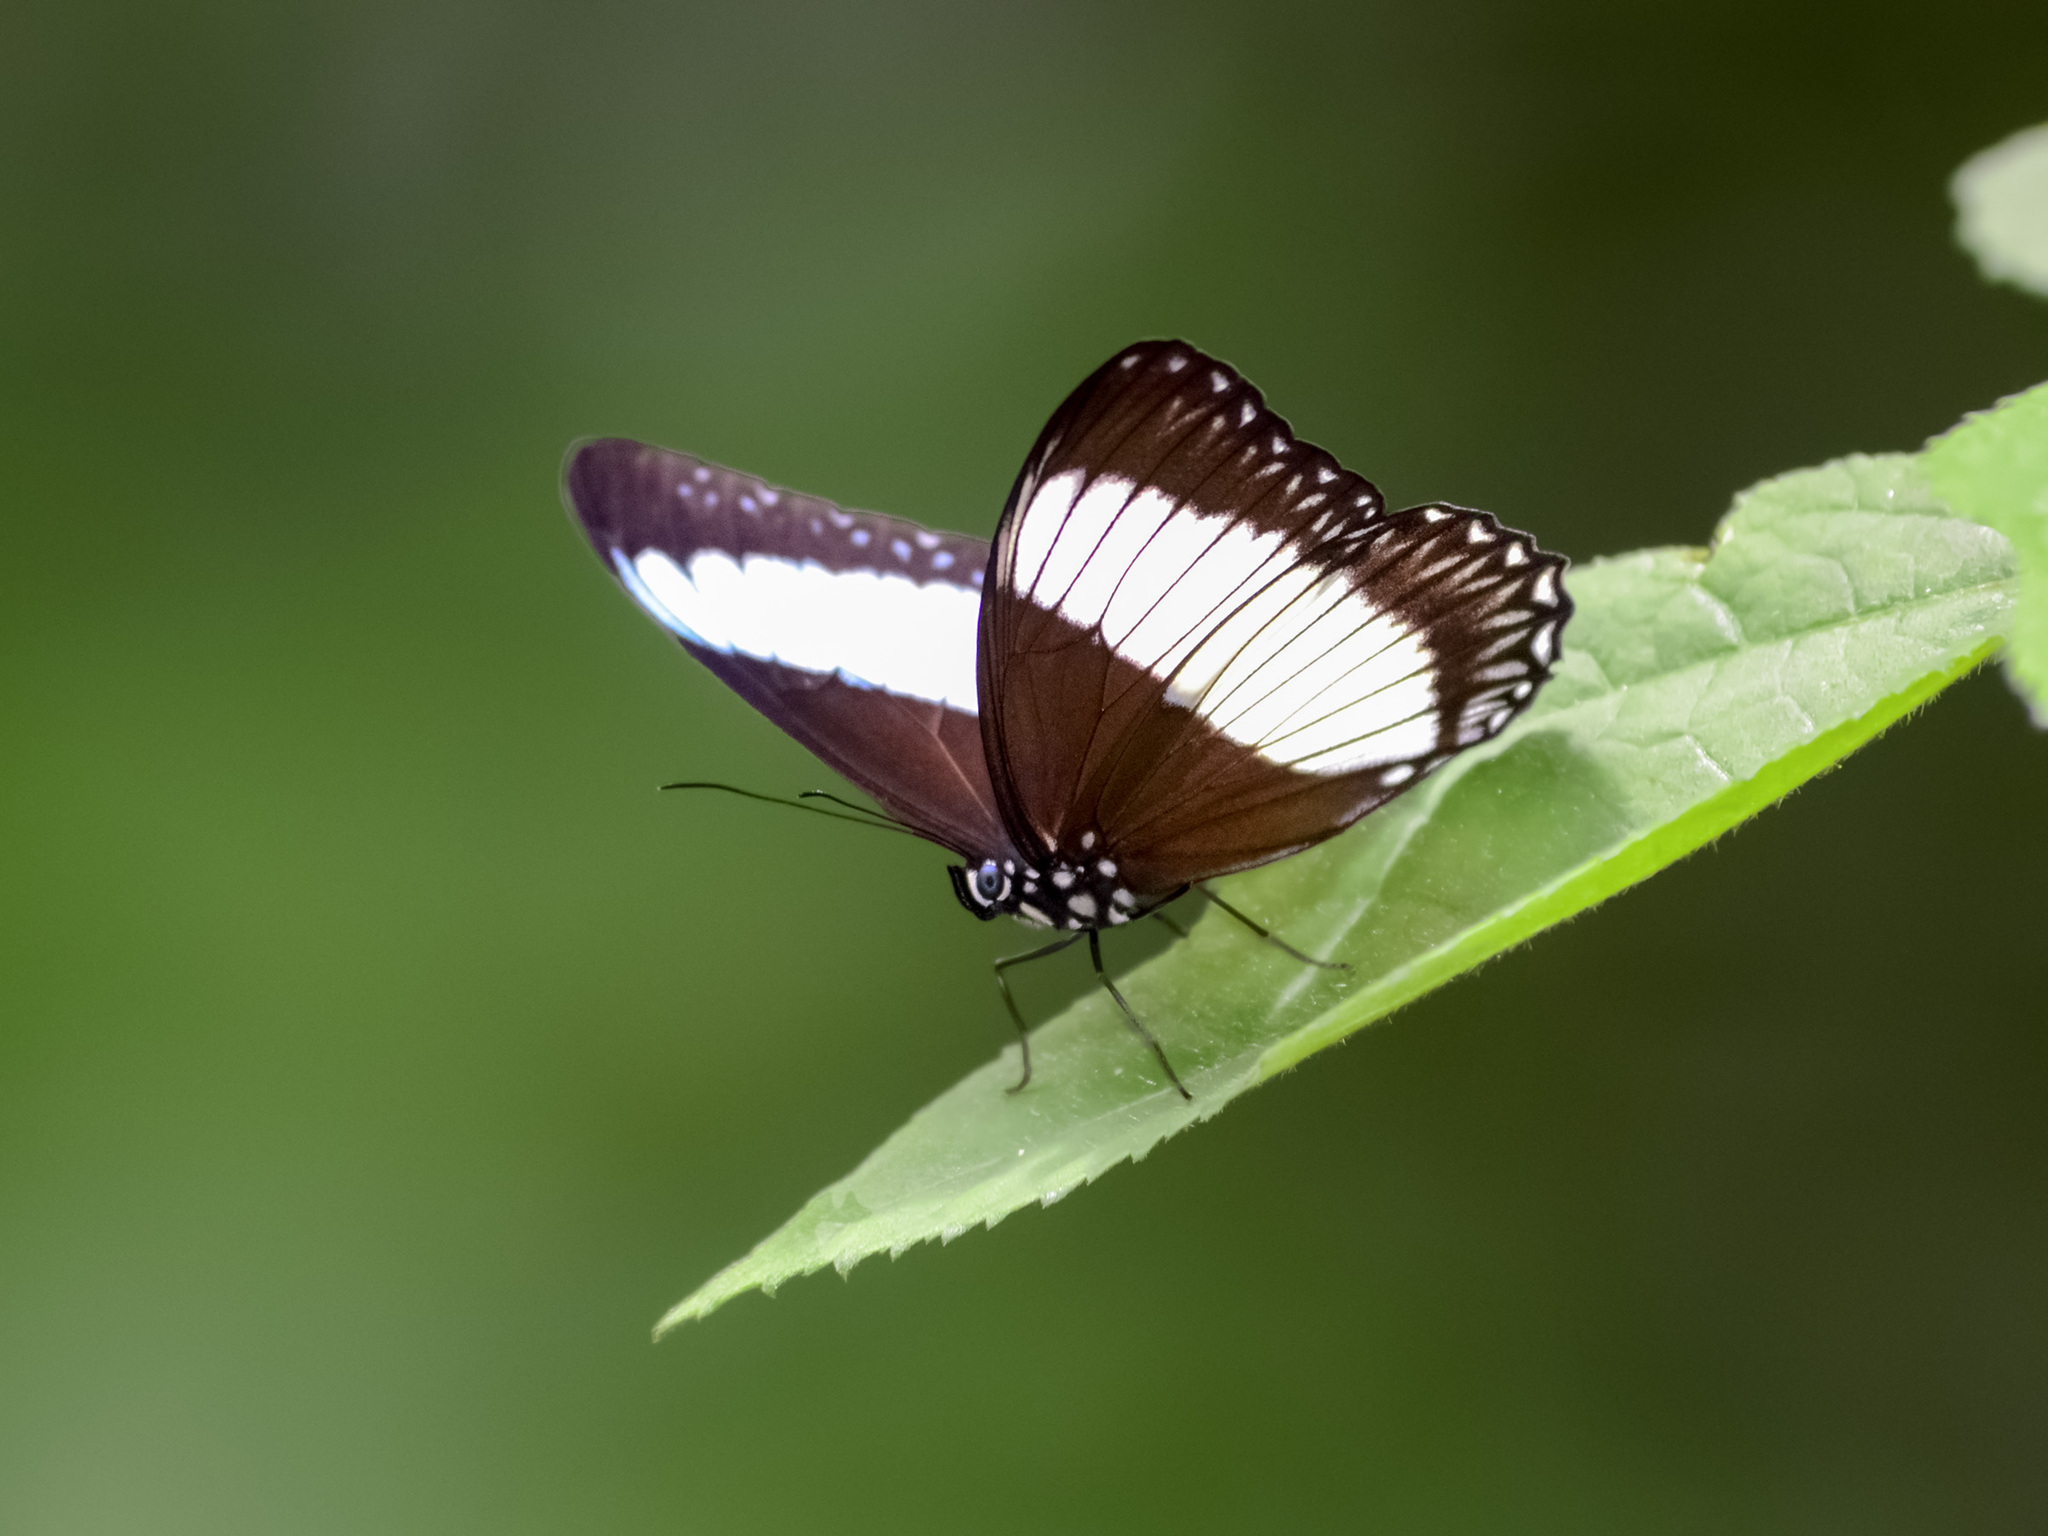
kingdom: Animalia
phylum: Arthropoda
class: Insecta
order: Lepidoptera
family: Nymphalidae
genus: Zethera
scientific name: Zethera pimplea
